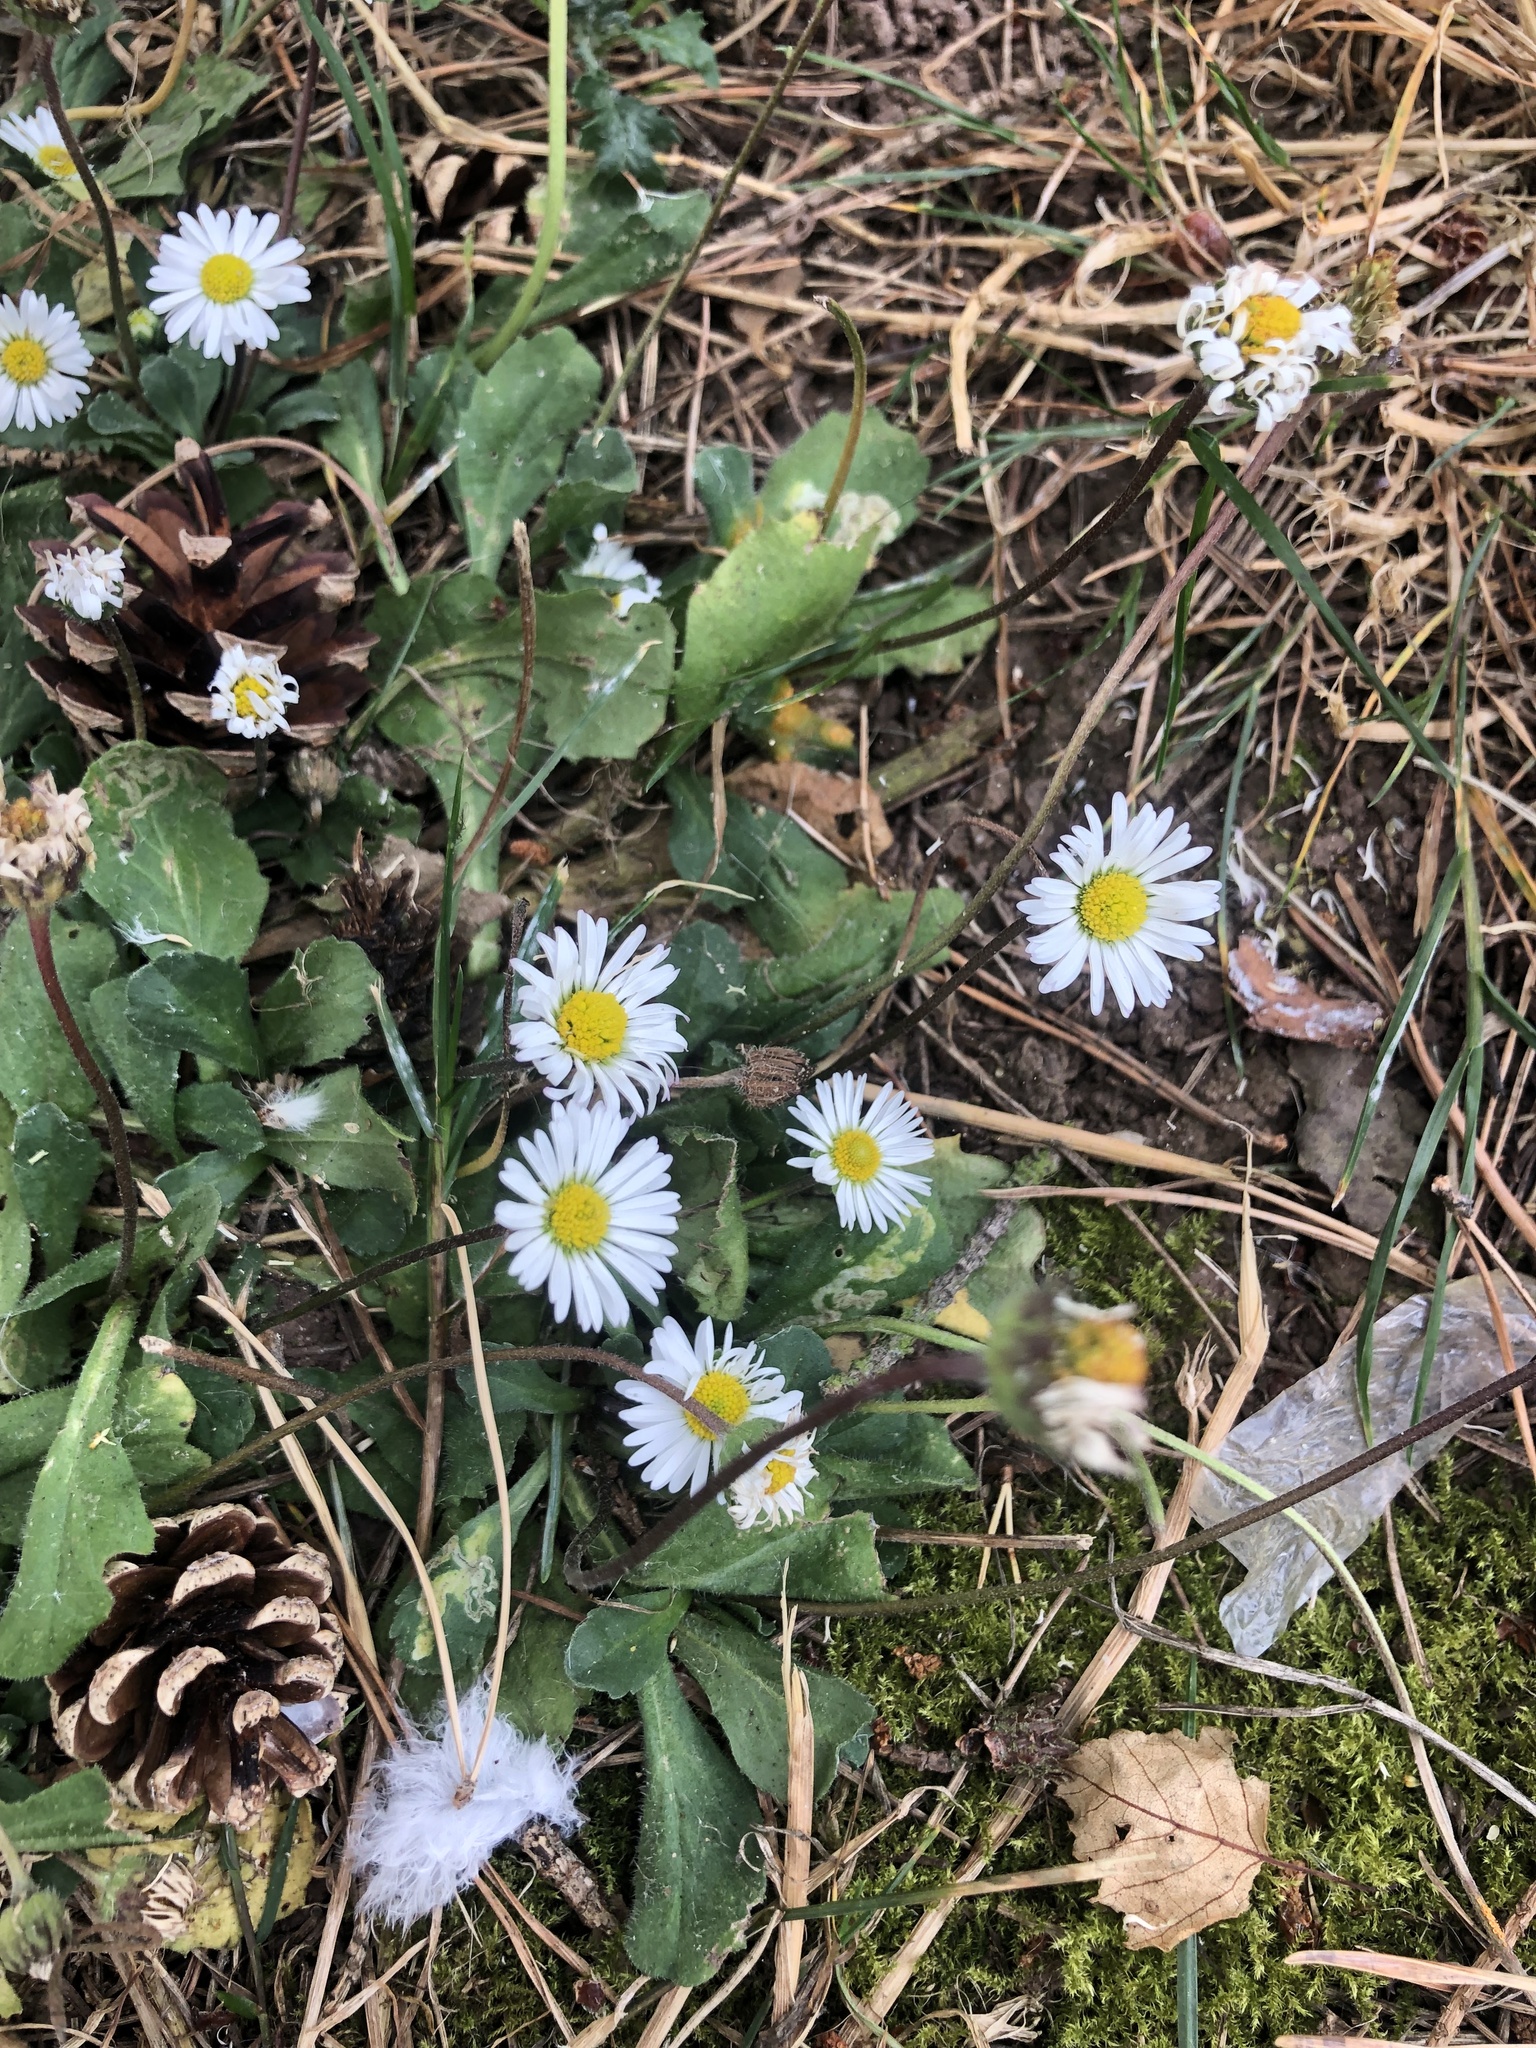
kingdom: Plantae
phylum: Tracheophyta
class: Magnoliopsida
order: Asterales
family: Asteraceae
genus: Bellis
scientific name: Bellis perennis
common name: Lawndaisy
